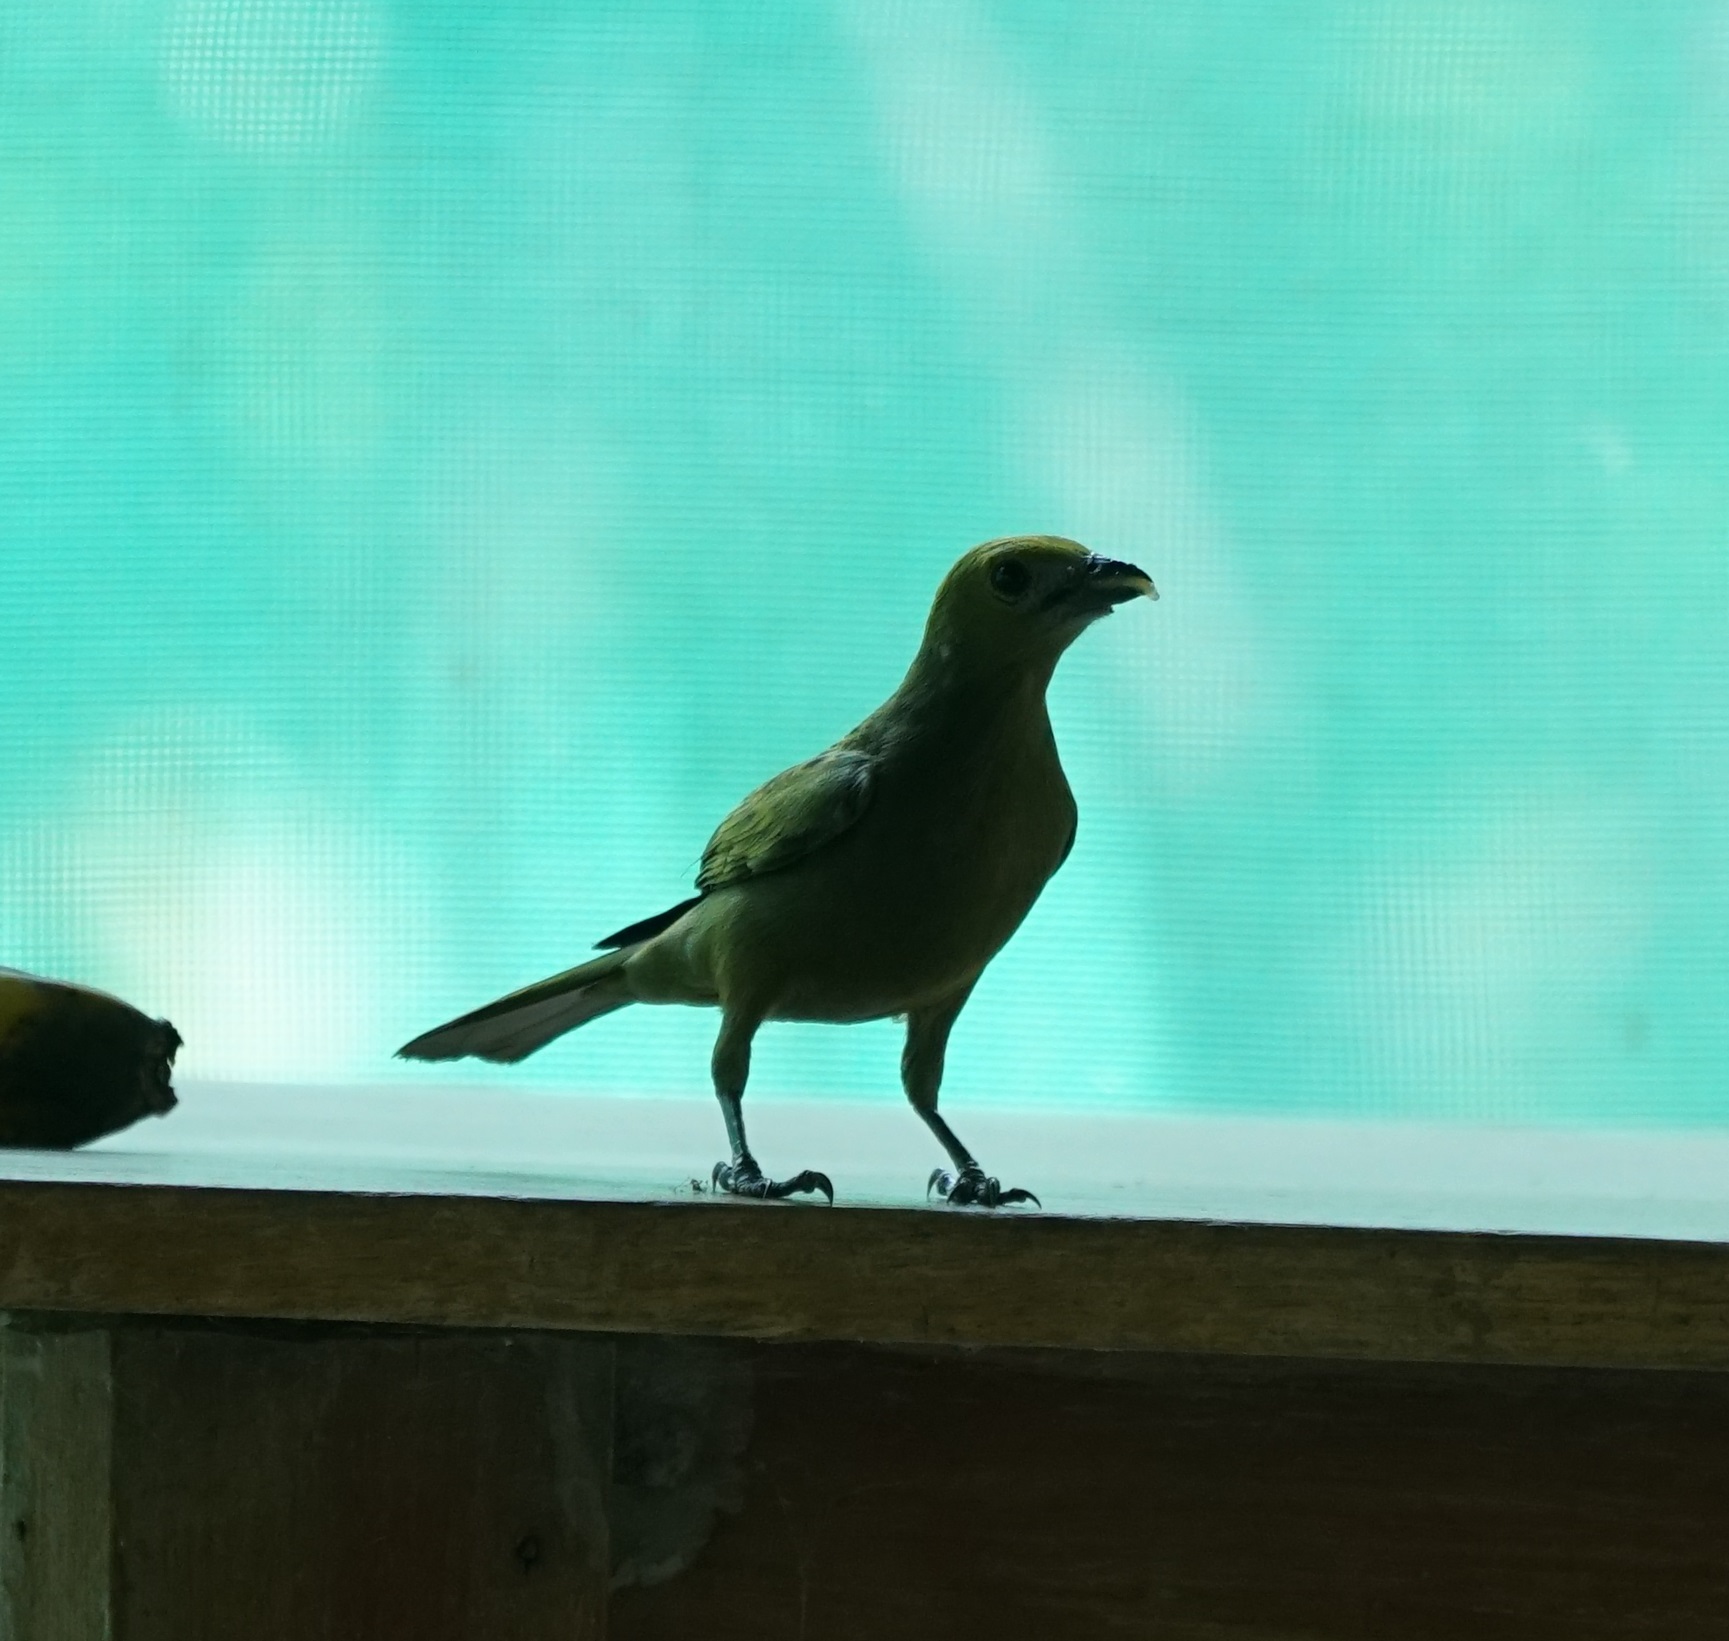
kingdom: Animalia
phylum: Chordata
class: Aves
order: Passeriformes
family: Thraupidae
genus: Thraupis
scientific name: Thraupis palmarum
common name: Palm tanager
